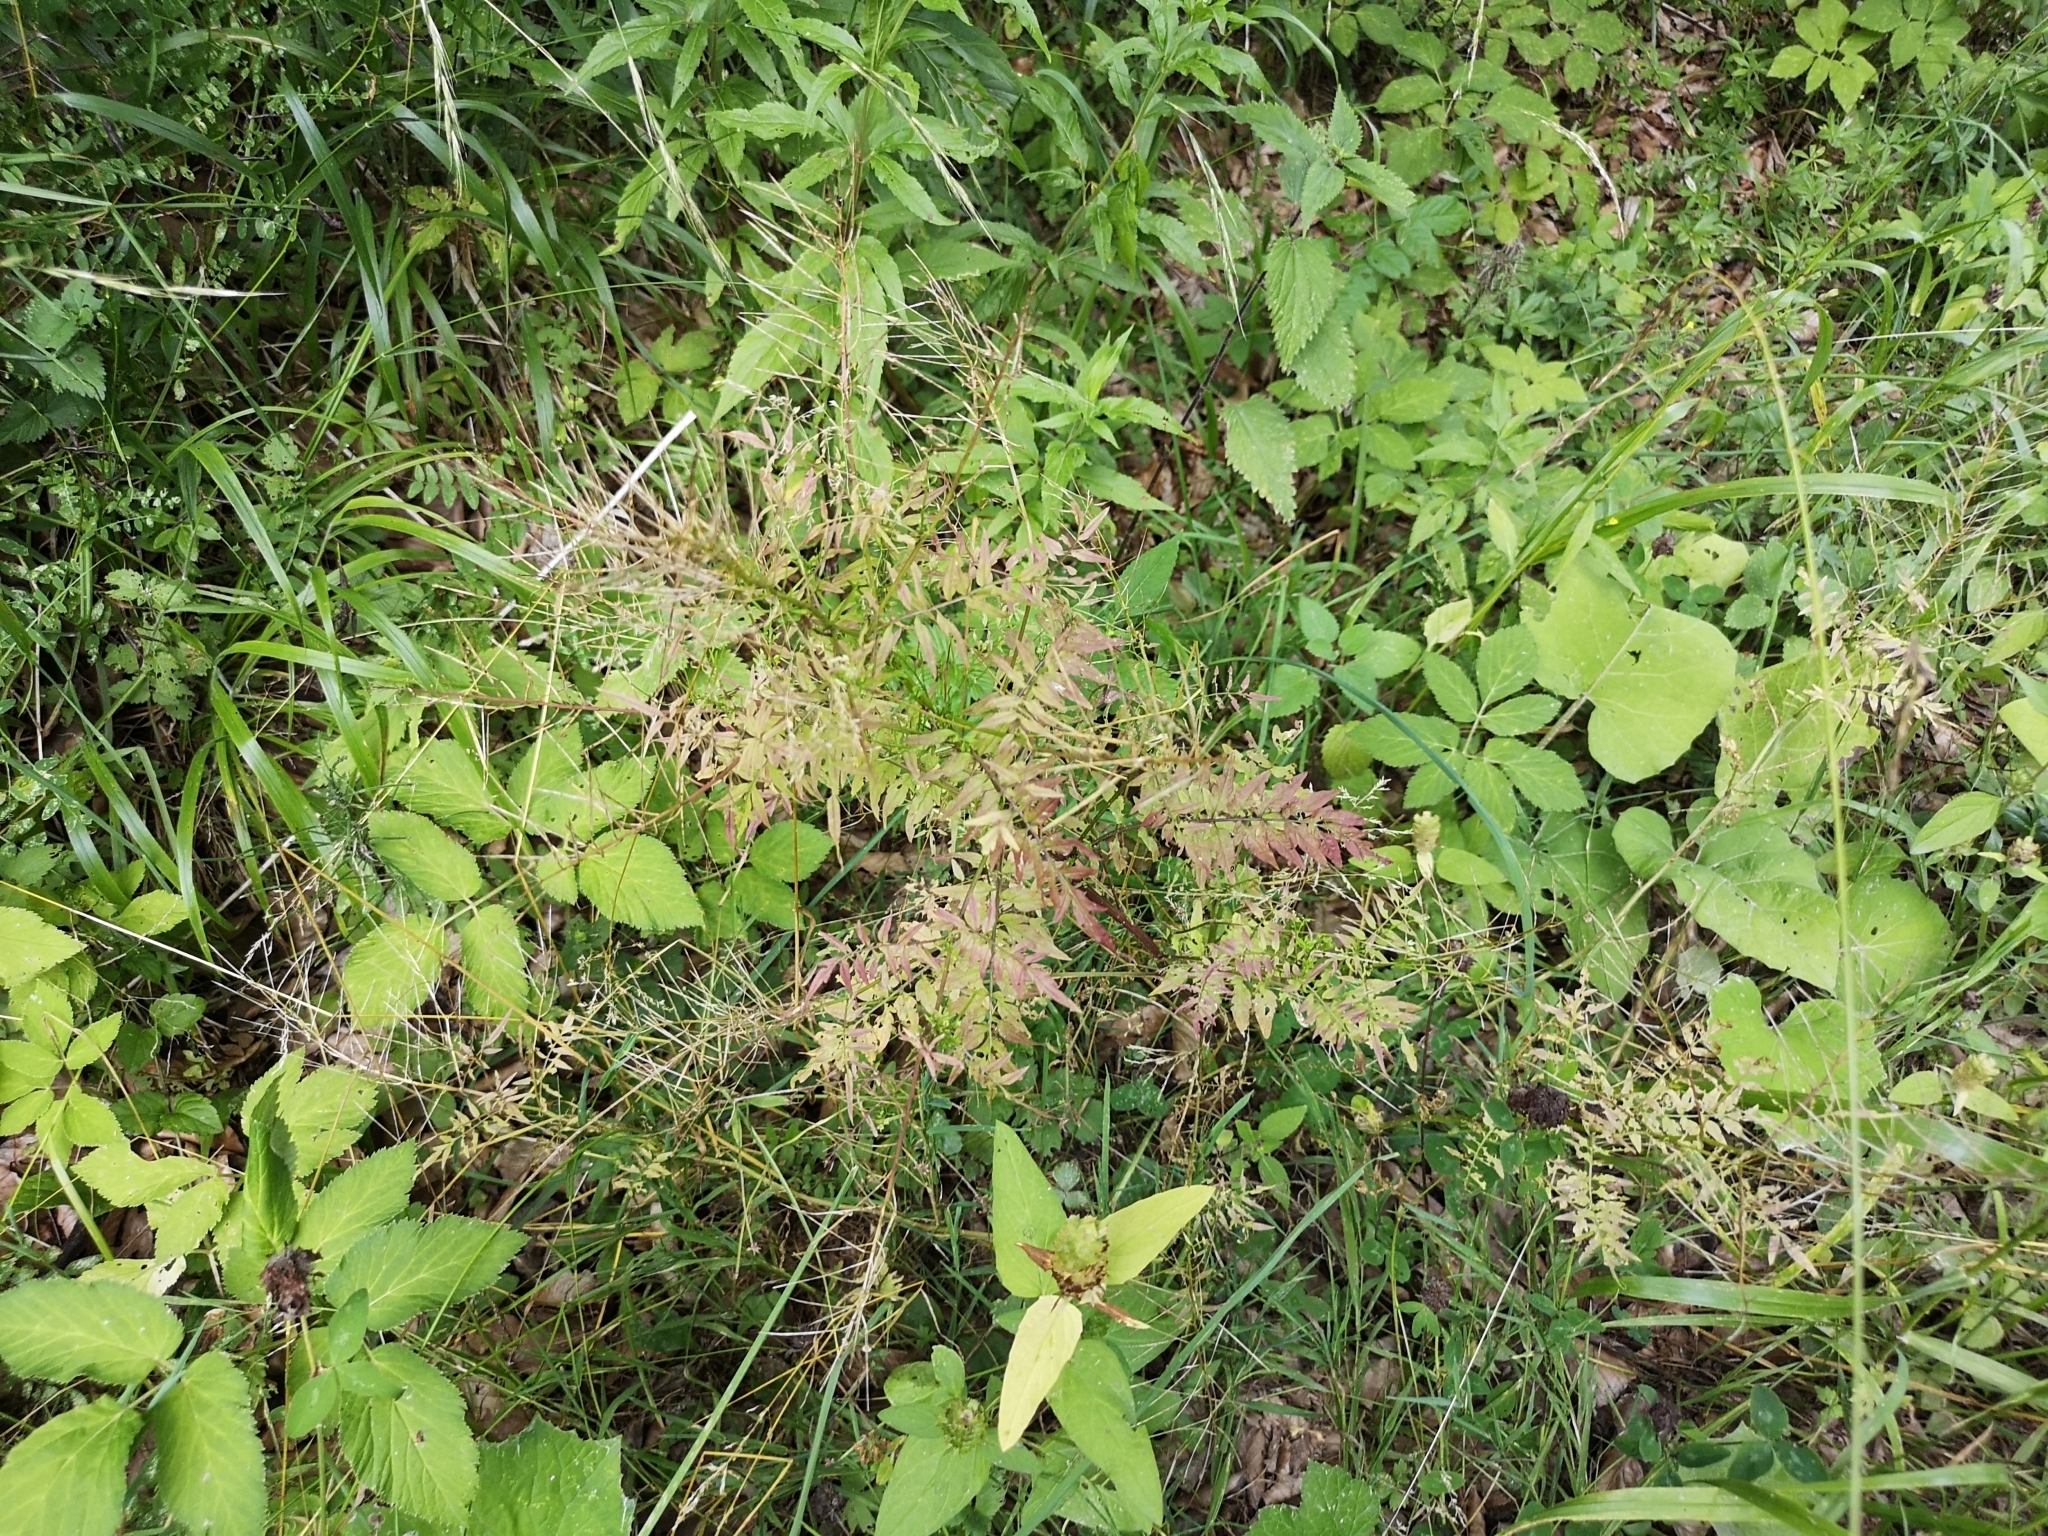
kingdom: Plantae
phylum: Tracheophyta
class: Magnoliopsida
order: Brassicales
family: Brassicaceae
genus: Cardamine
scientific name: Cardamine impatiens
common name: Narrow-leaved bitter-cress
